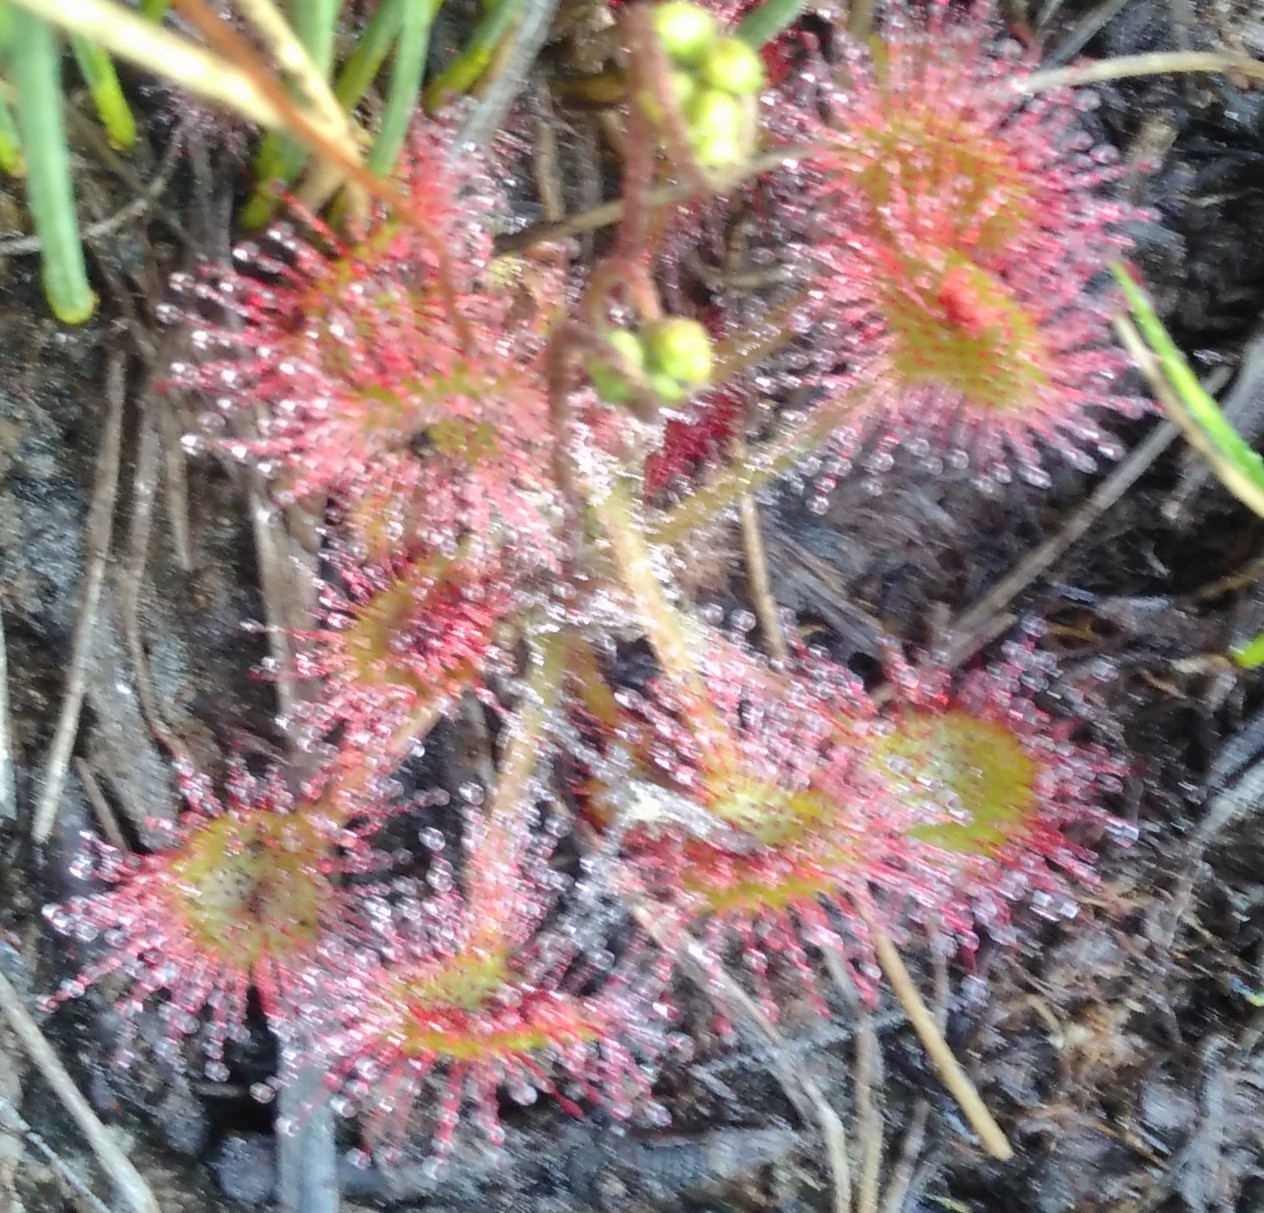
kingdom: Plantae
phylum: Tracheophyta
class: Magnoliopsida
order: Caryophyllales
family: Droseraceae
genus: Drosera
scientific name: Drosera rotundifolia
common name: Round-leaved sundew
